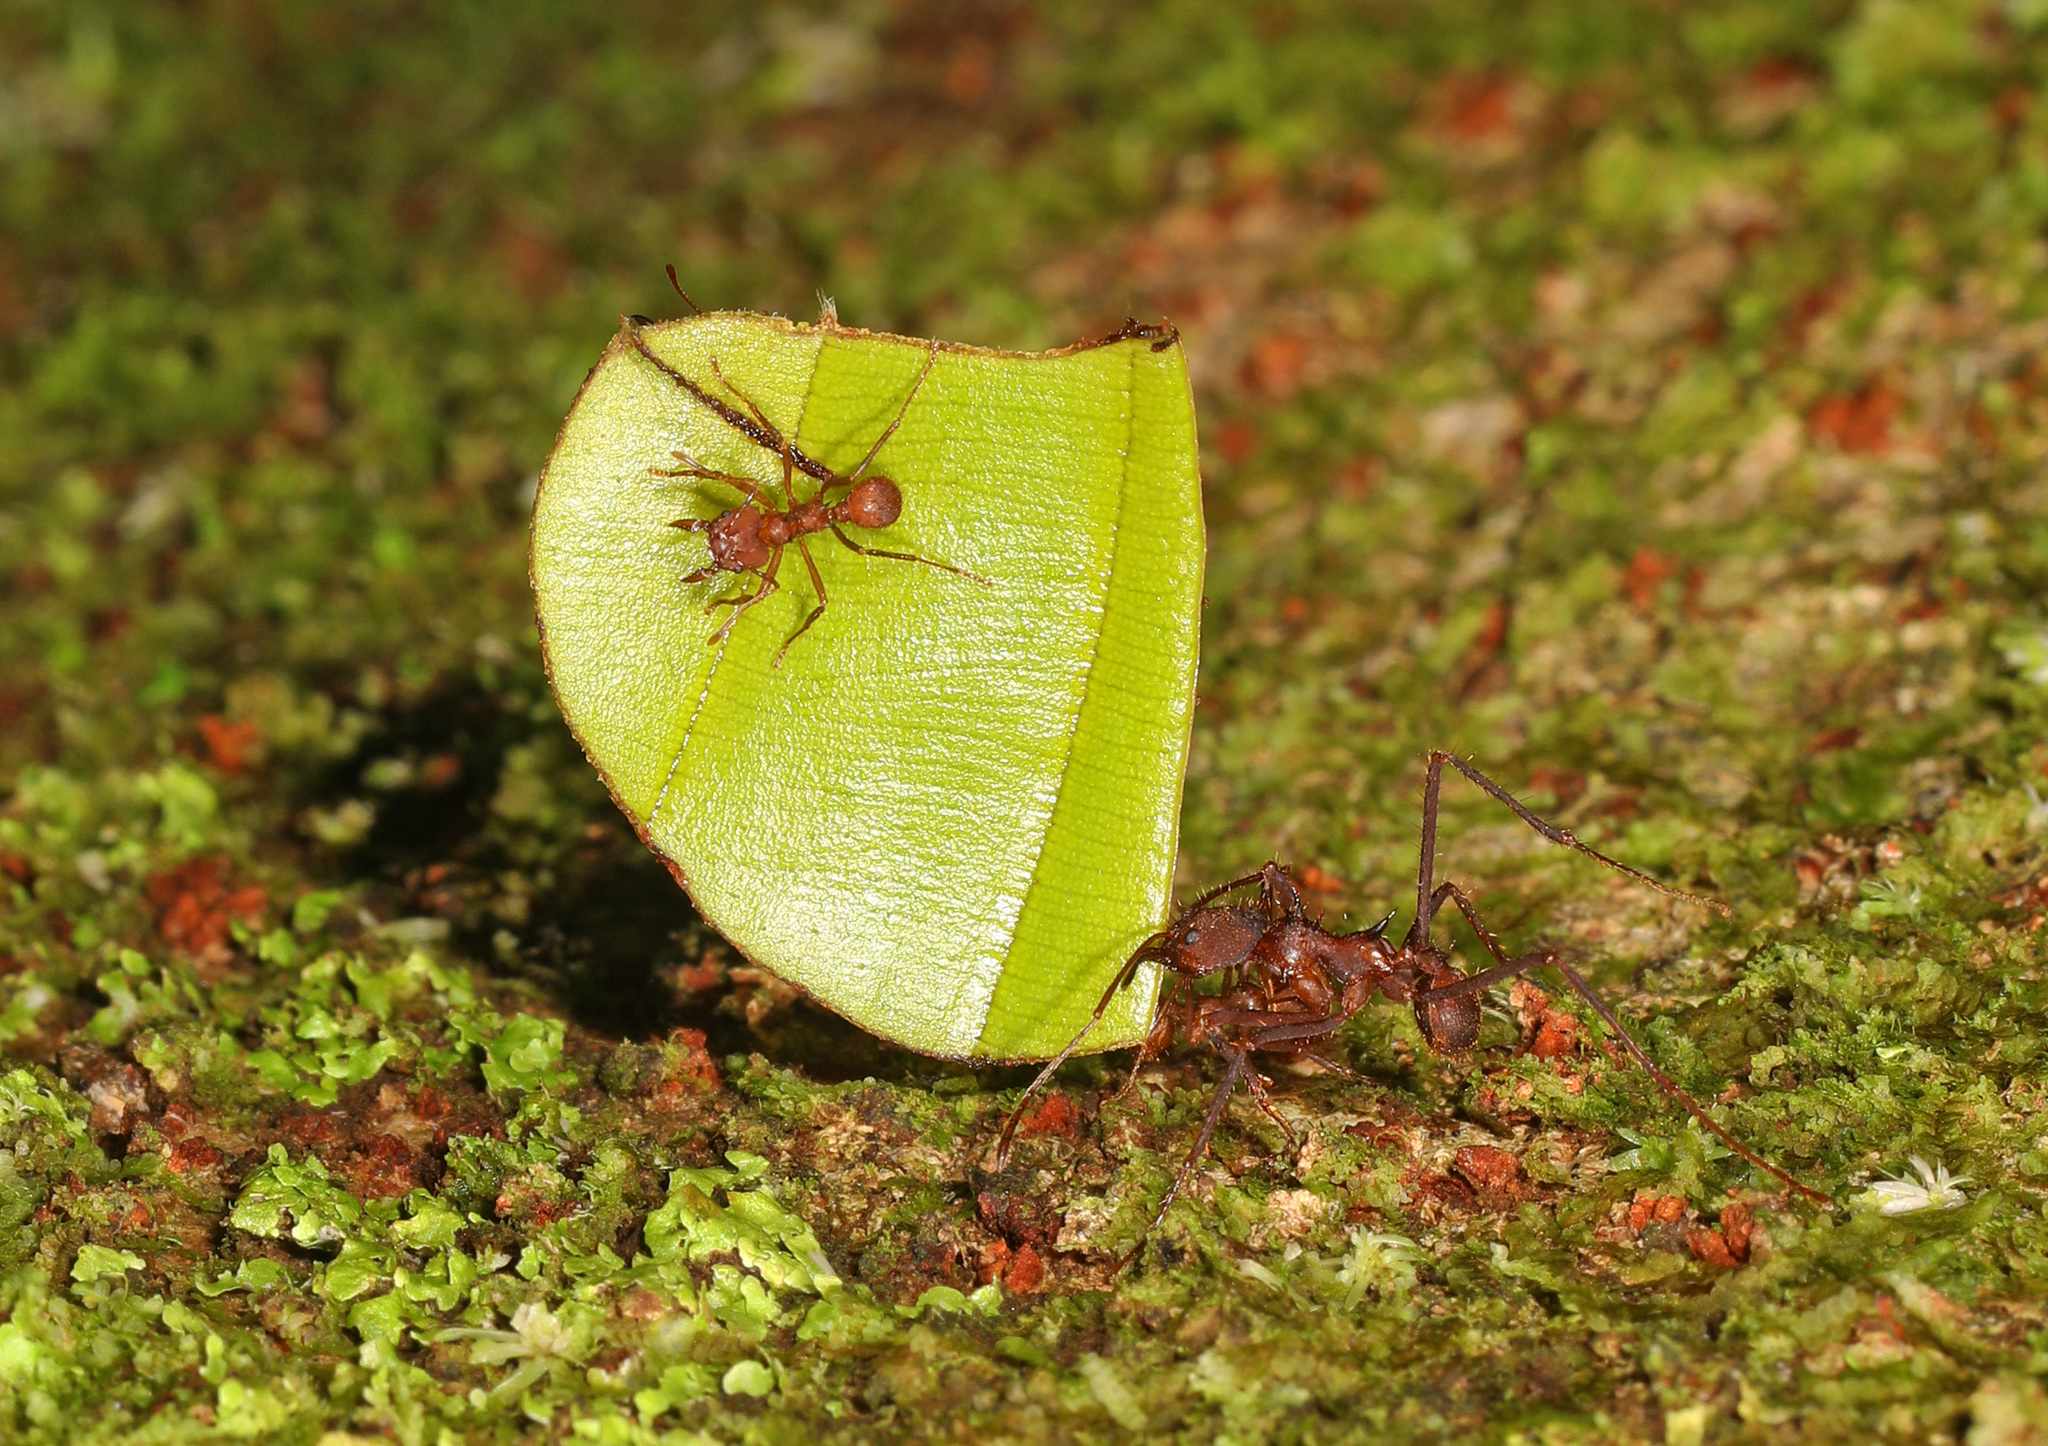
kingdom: Animalia
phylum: Arthropoda
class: Insecta
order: Hymenoptera
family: Formicidae
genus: Atta
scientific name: Atta cephalotes
